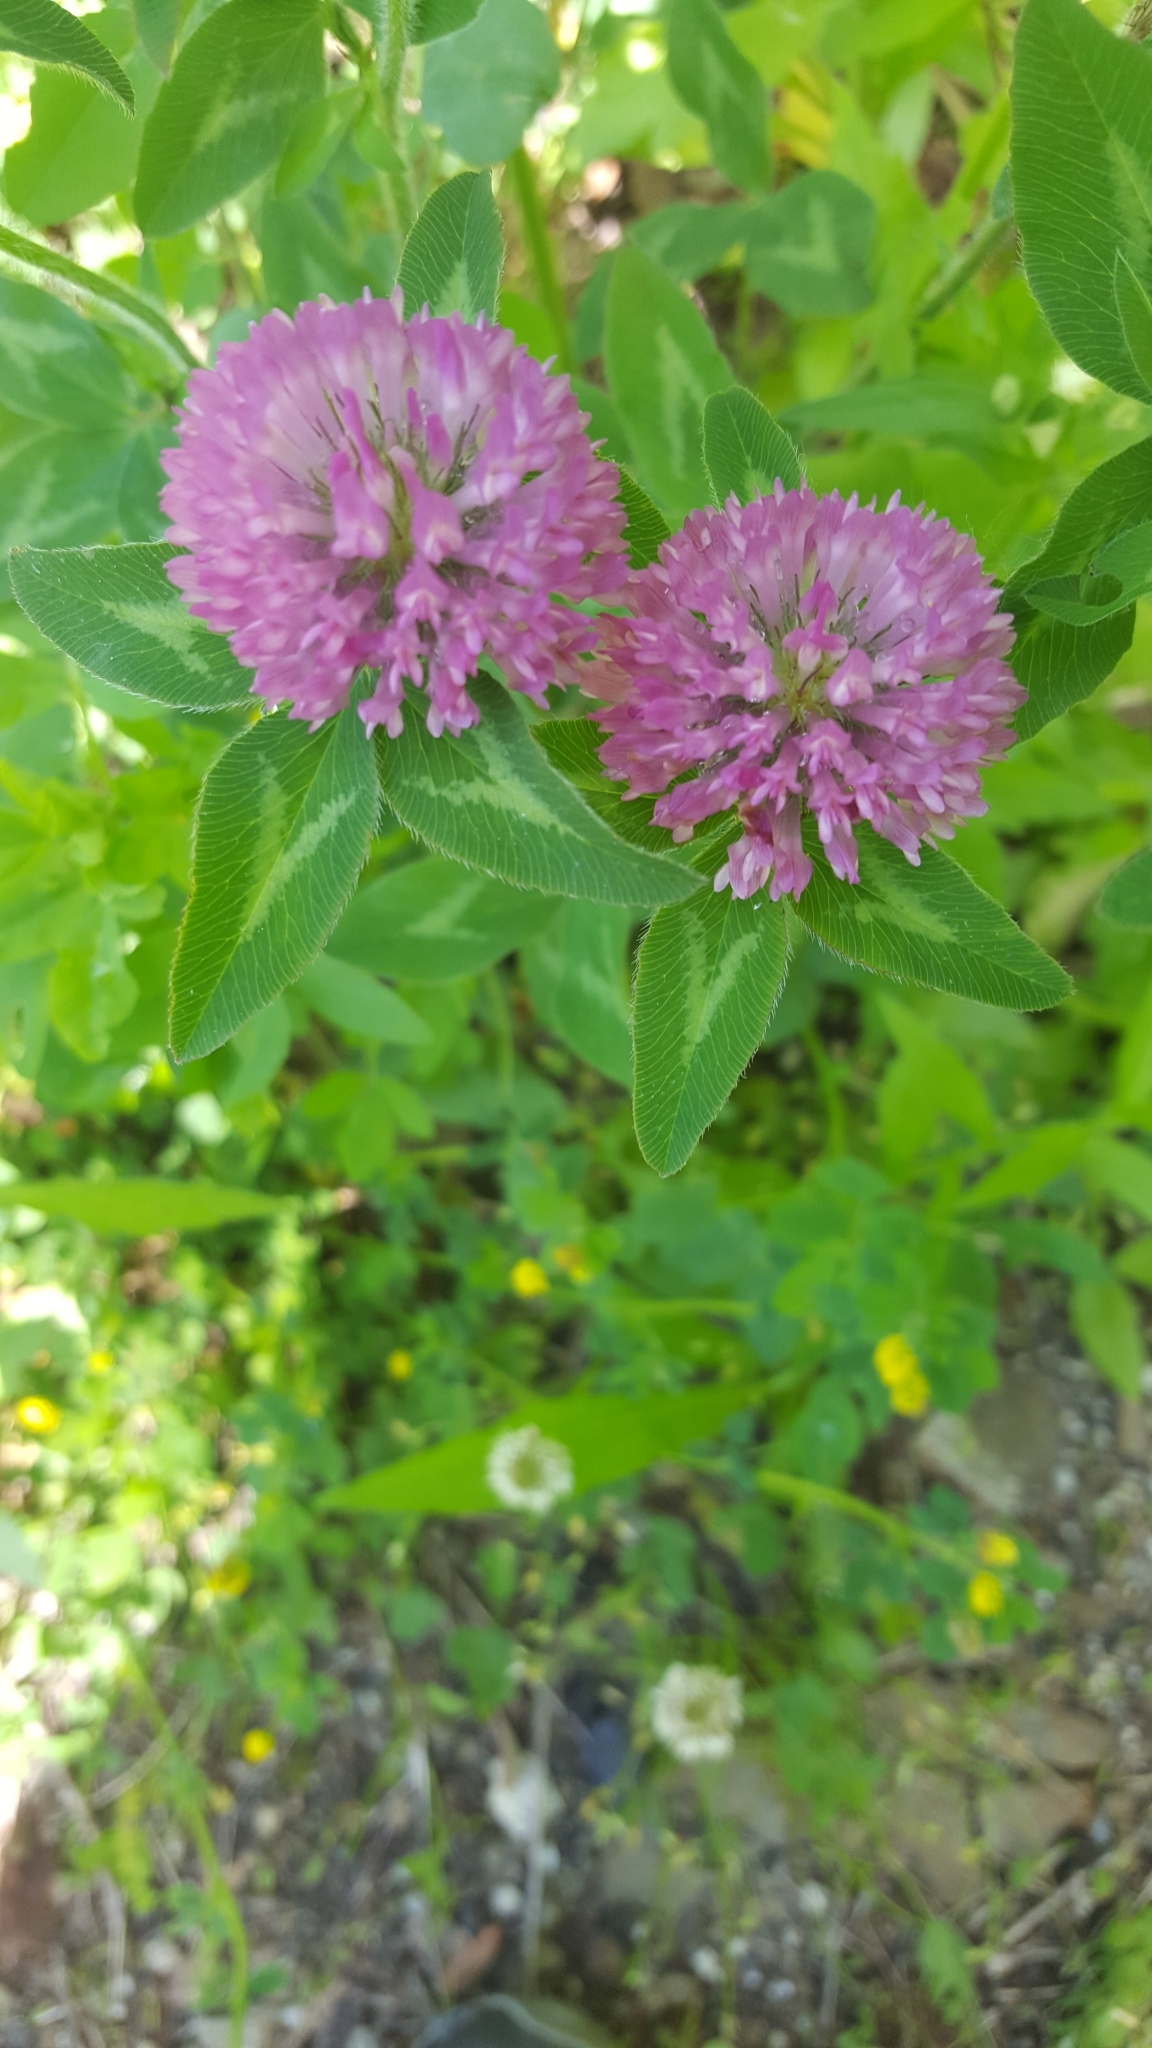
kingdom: Plantae
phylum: Tracheophyta
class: Magnoliopsida
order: Fabales
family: Fabaceae
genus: Trifolium
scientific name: Trifolium pratense
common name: Red clover
